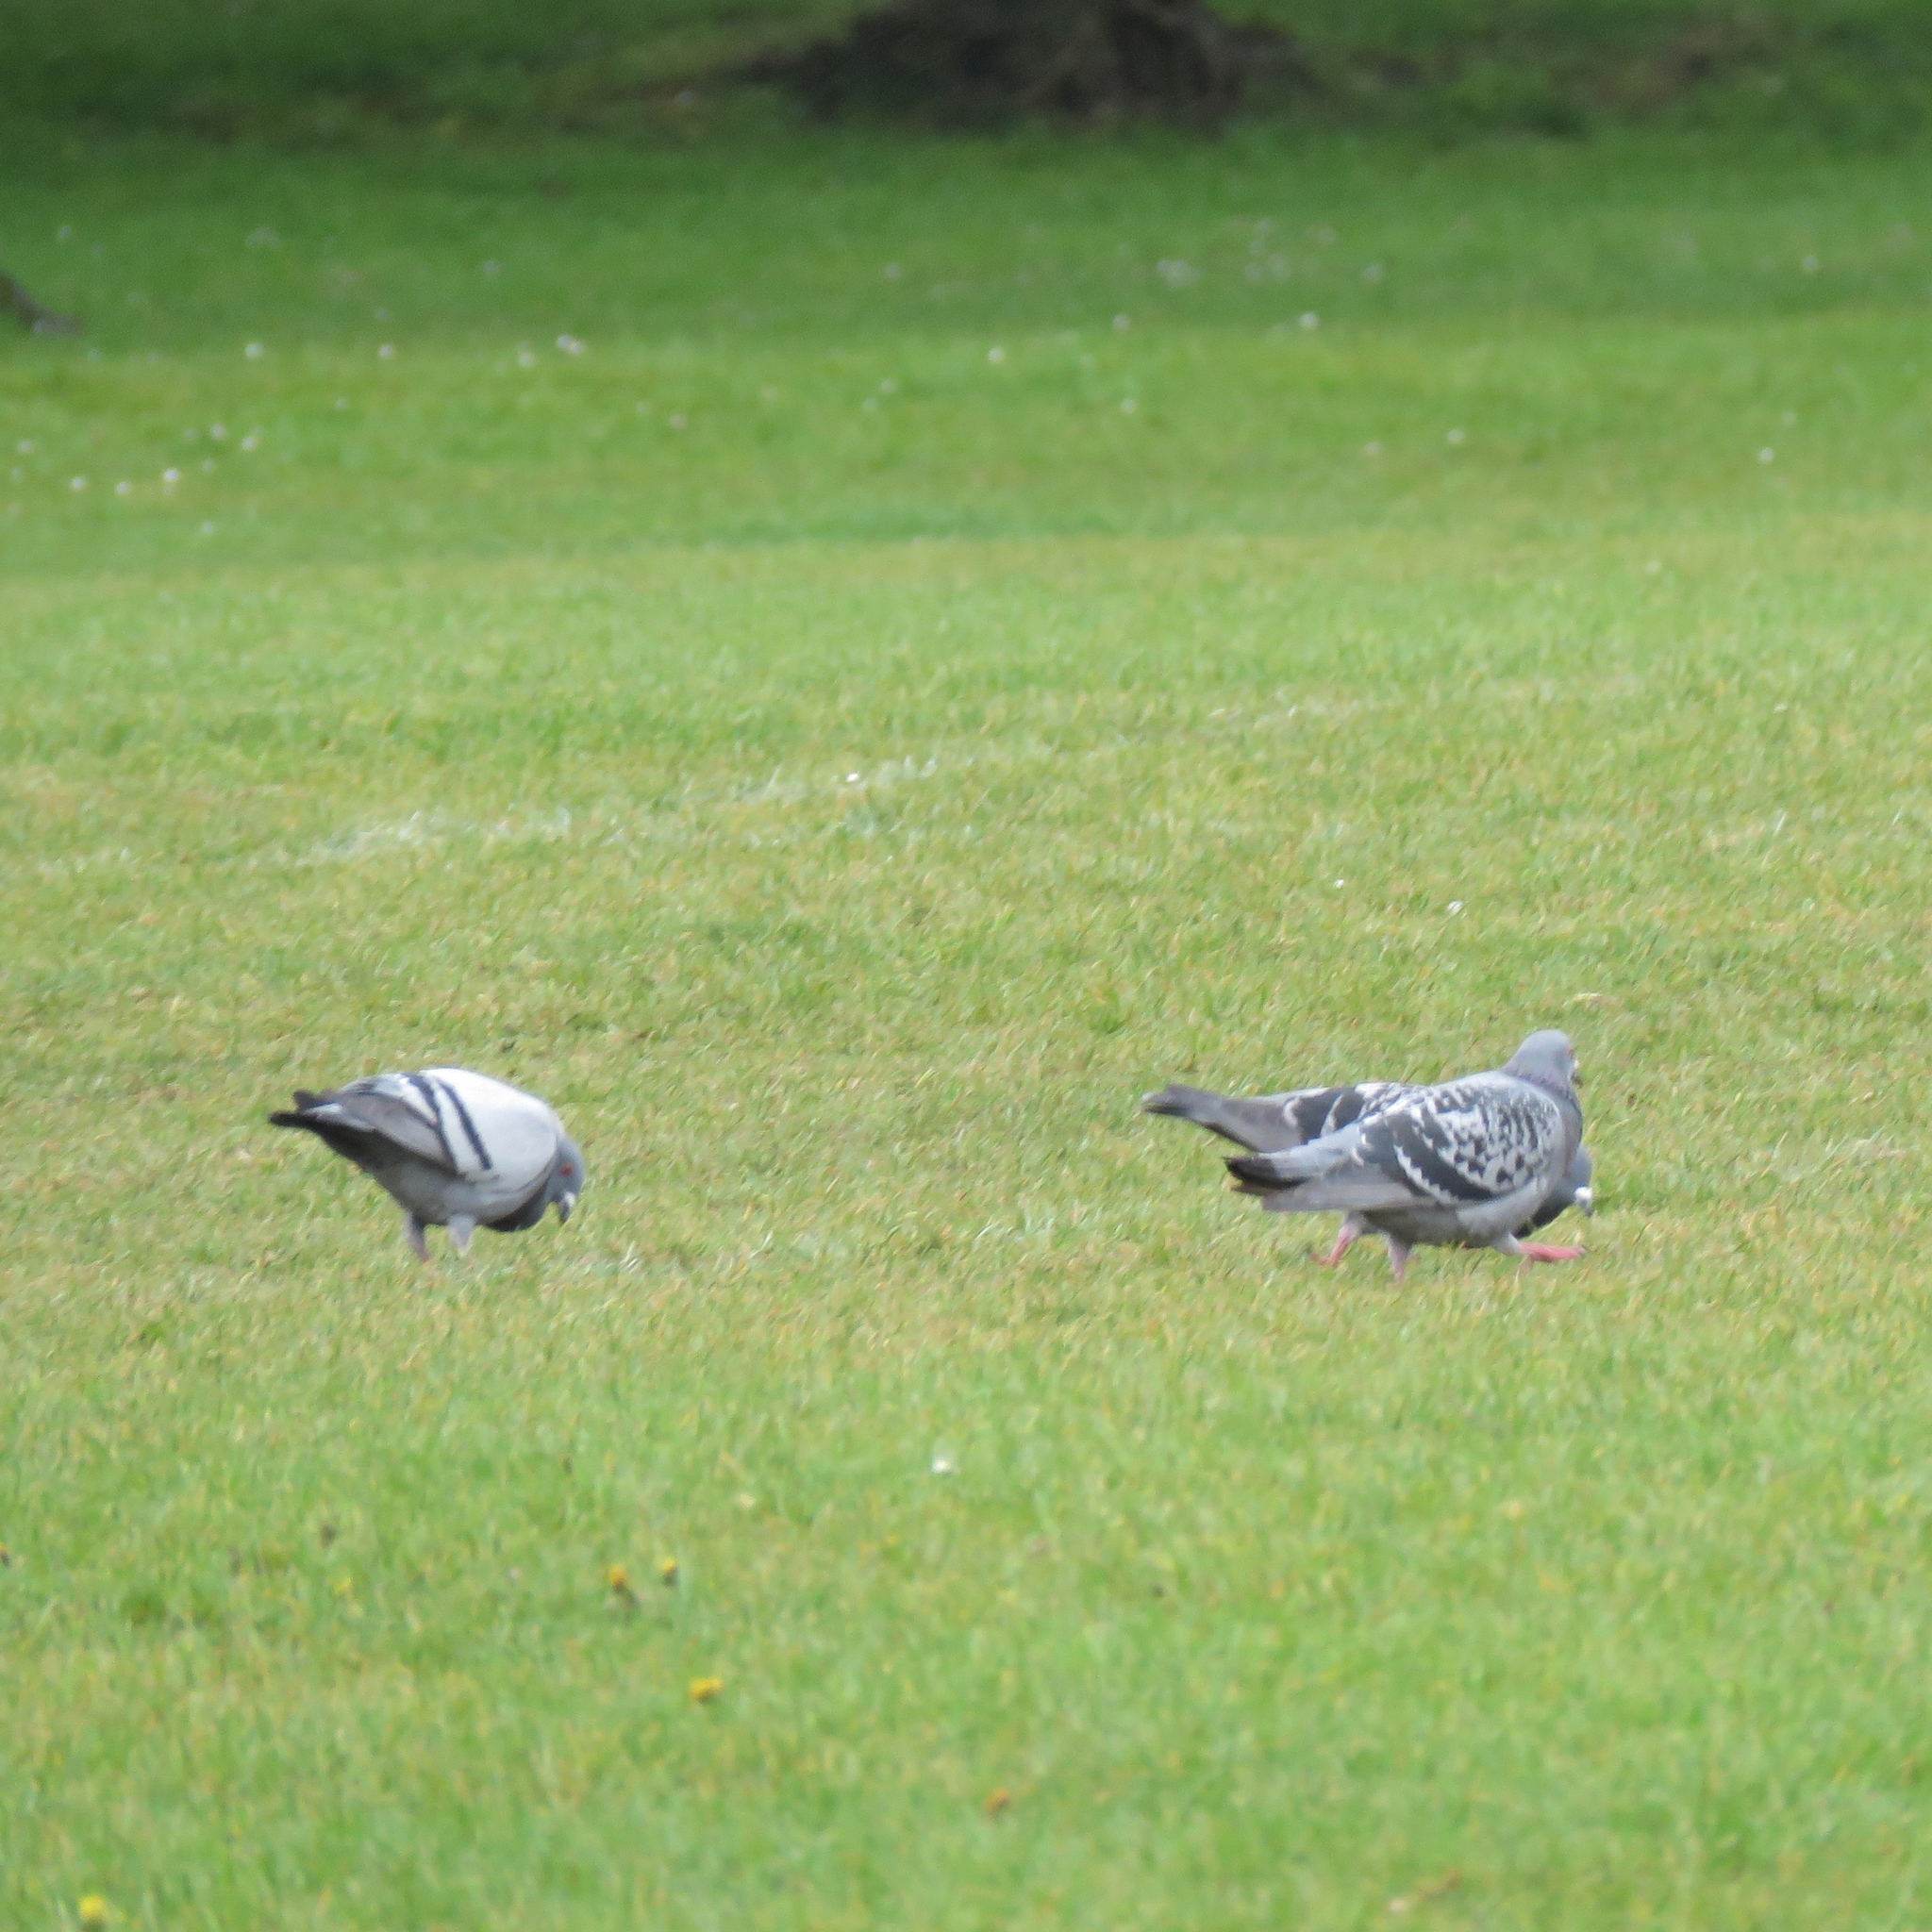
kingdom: Animalia
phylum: Chordata
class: Aves
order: Columbiformes
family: Columbidae
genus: Columba
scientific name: Columba livia
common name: Rock pigeon
